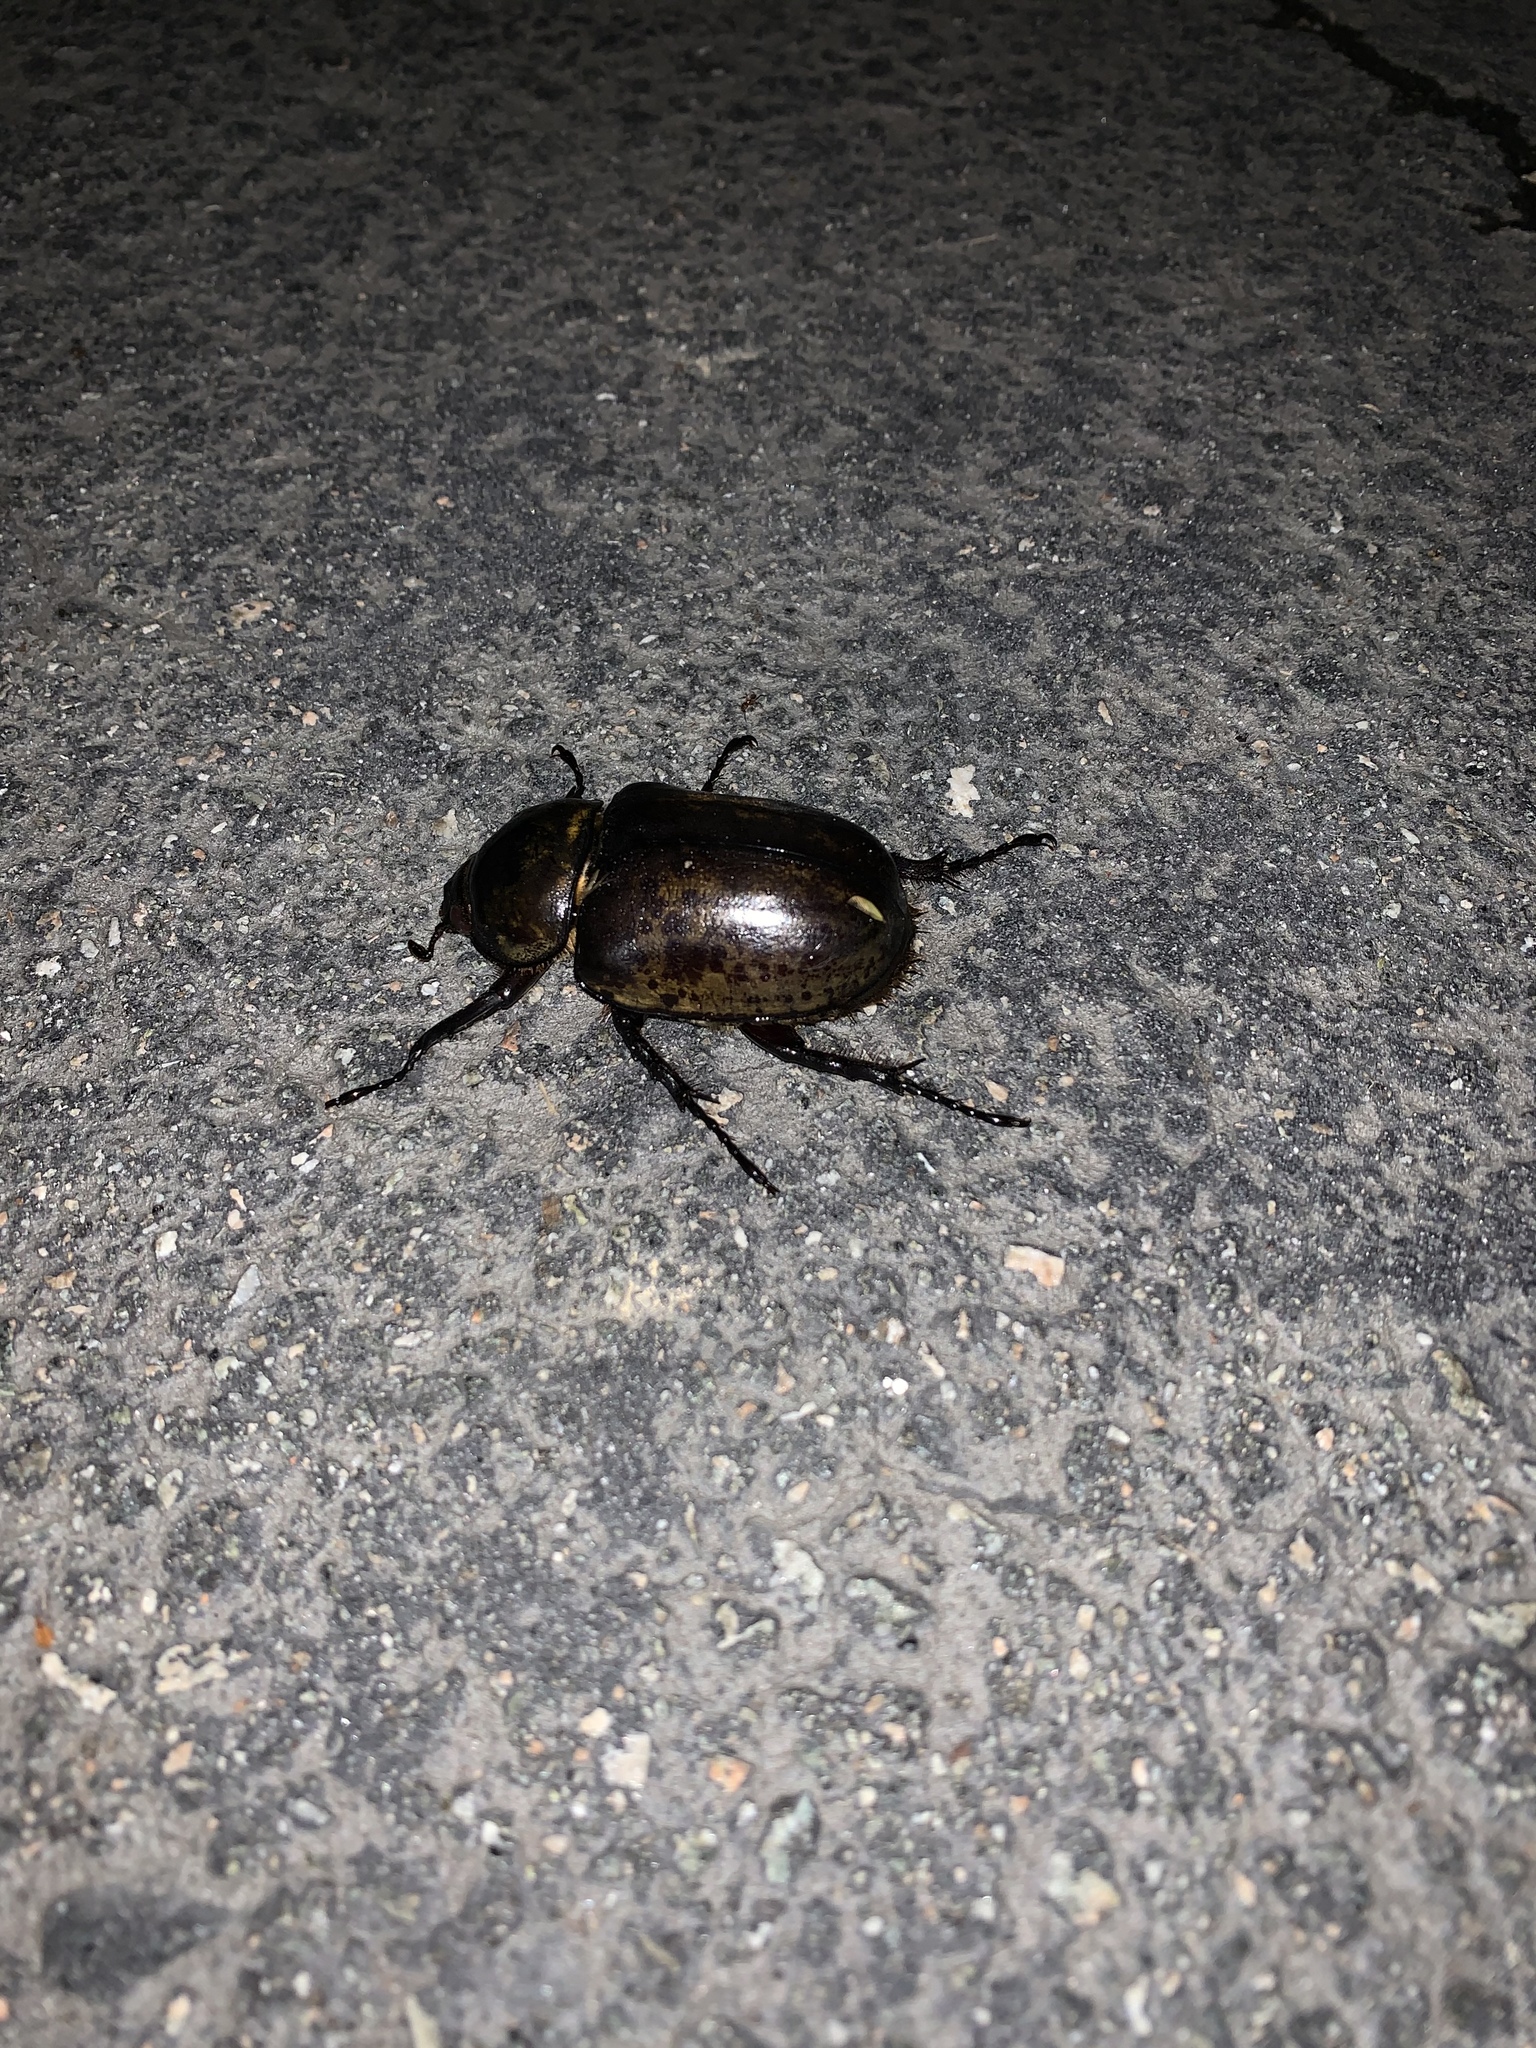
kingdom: Animalia
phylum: Arthropoda
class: Insecta
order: Coleoptera
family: Scarabaeidae
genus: Dynastes
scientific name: Dynastes tityus
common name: Eastern hercules beetle
